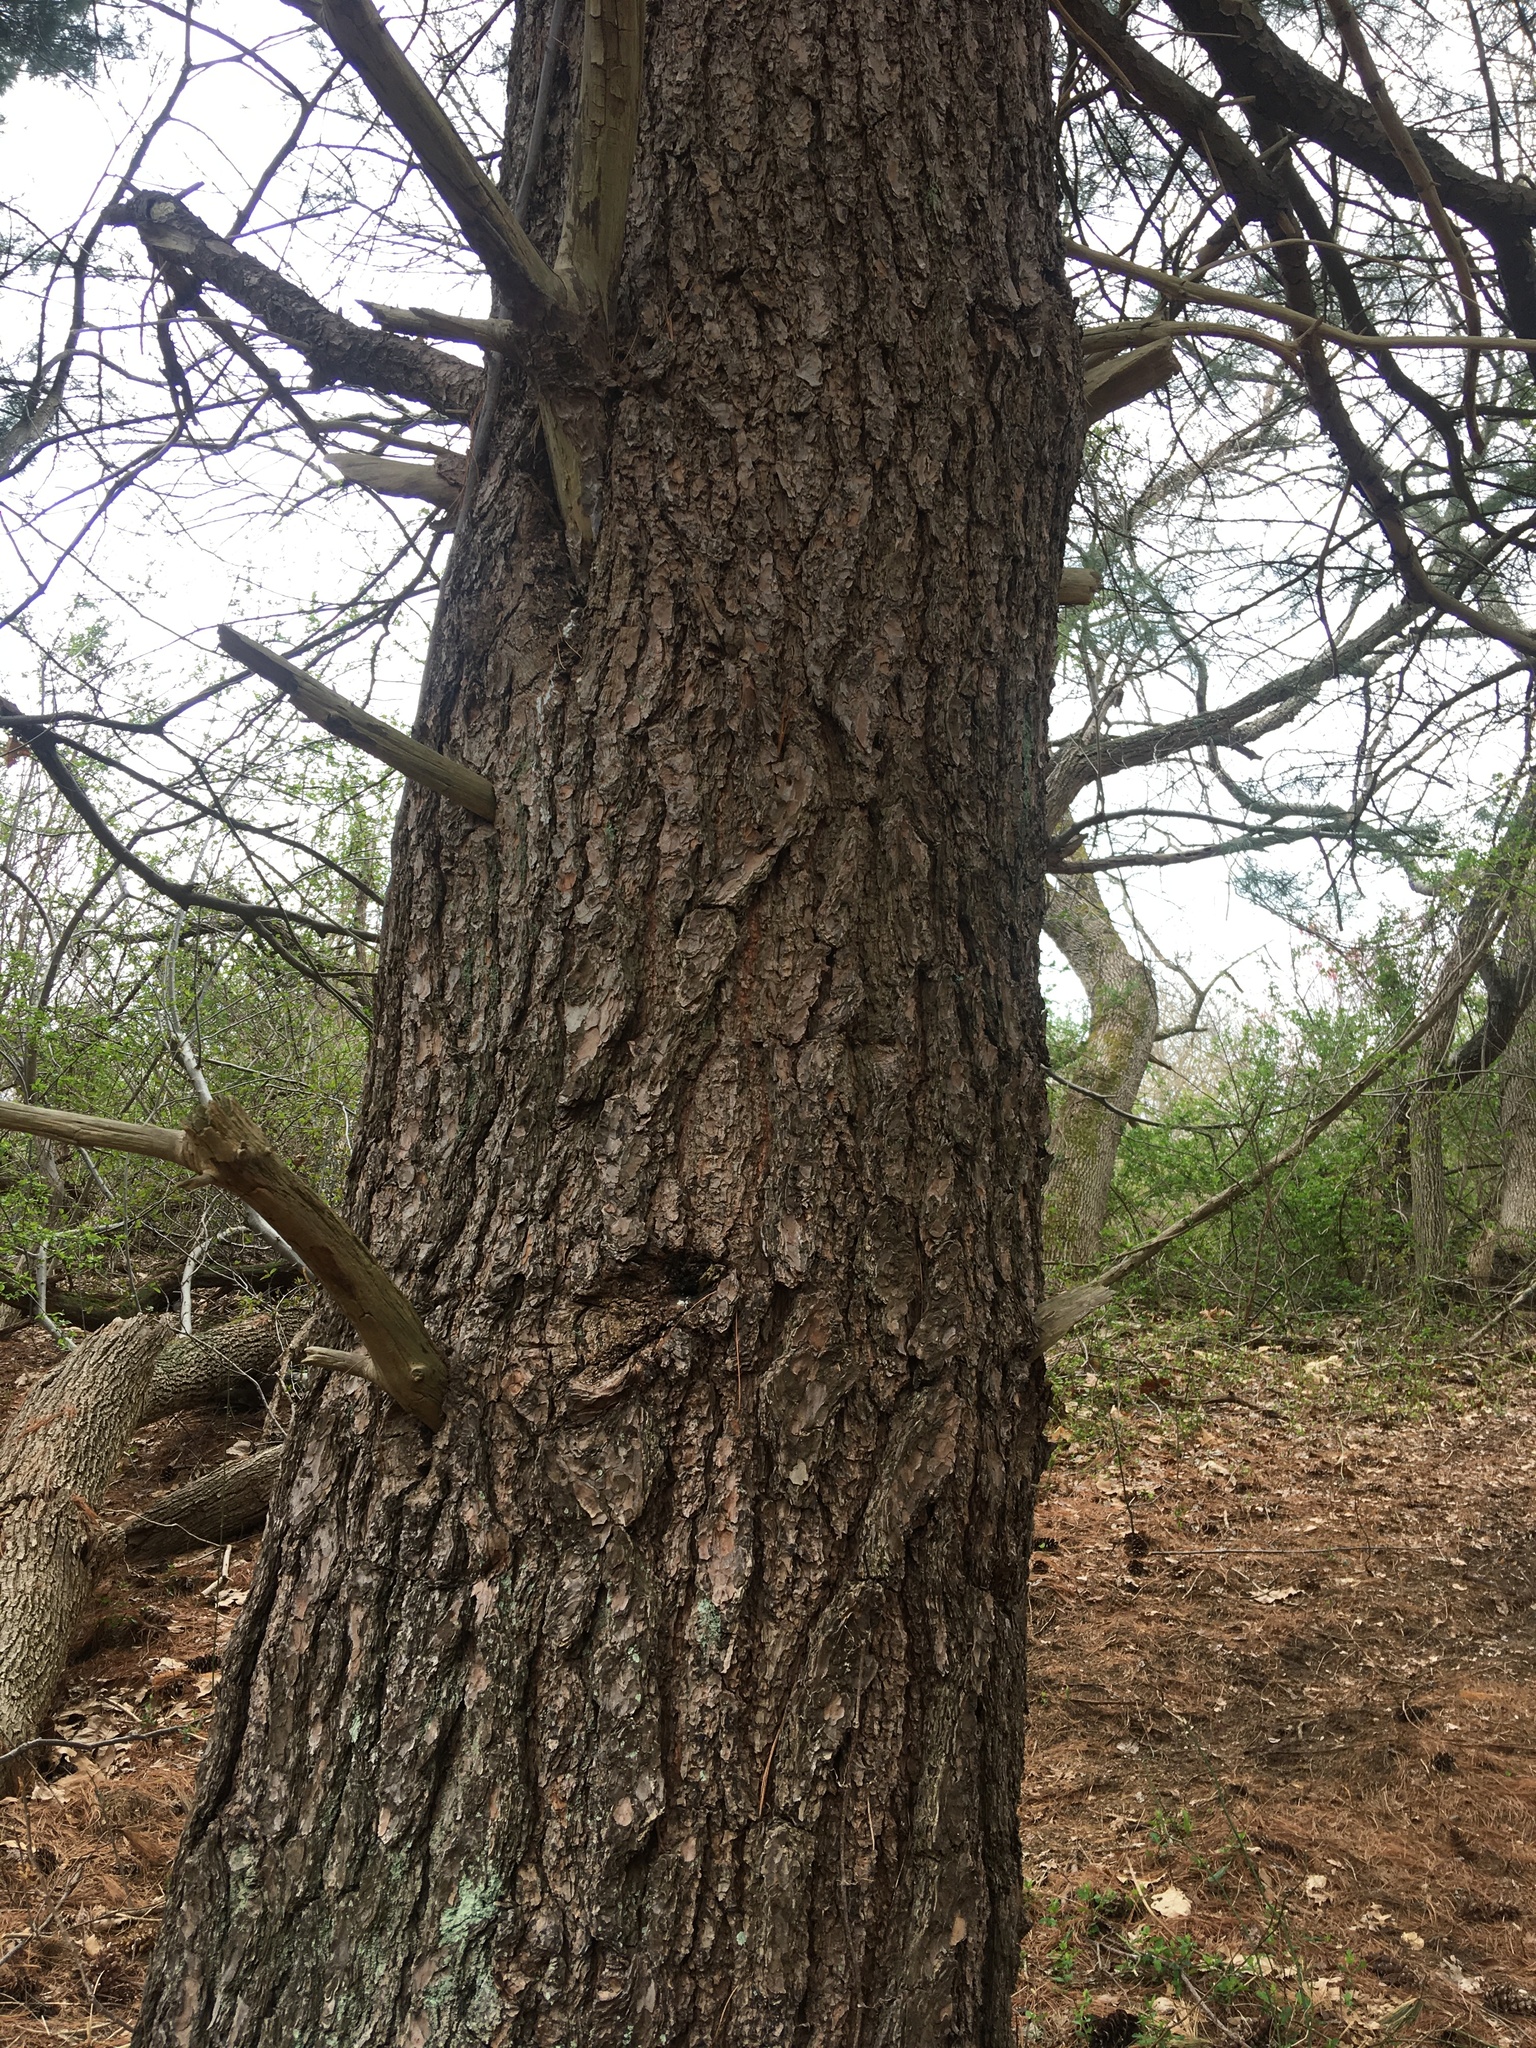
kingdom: Plantae
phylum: Tracheophyta
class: Pinopsida
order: Pinales
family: Pinaceae
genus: Pinus
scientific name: Pinus strobus
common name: Weymouth pine
